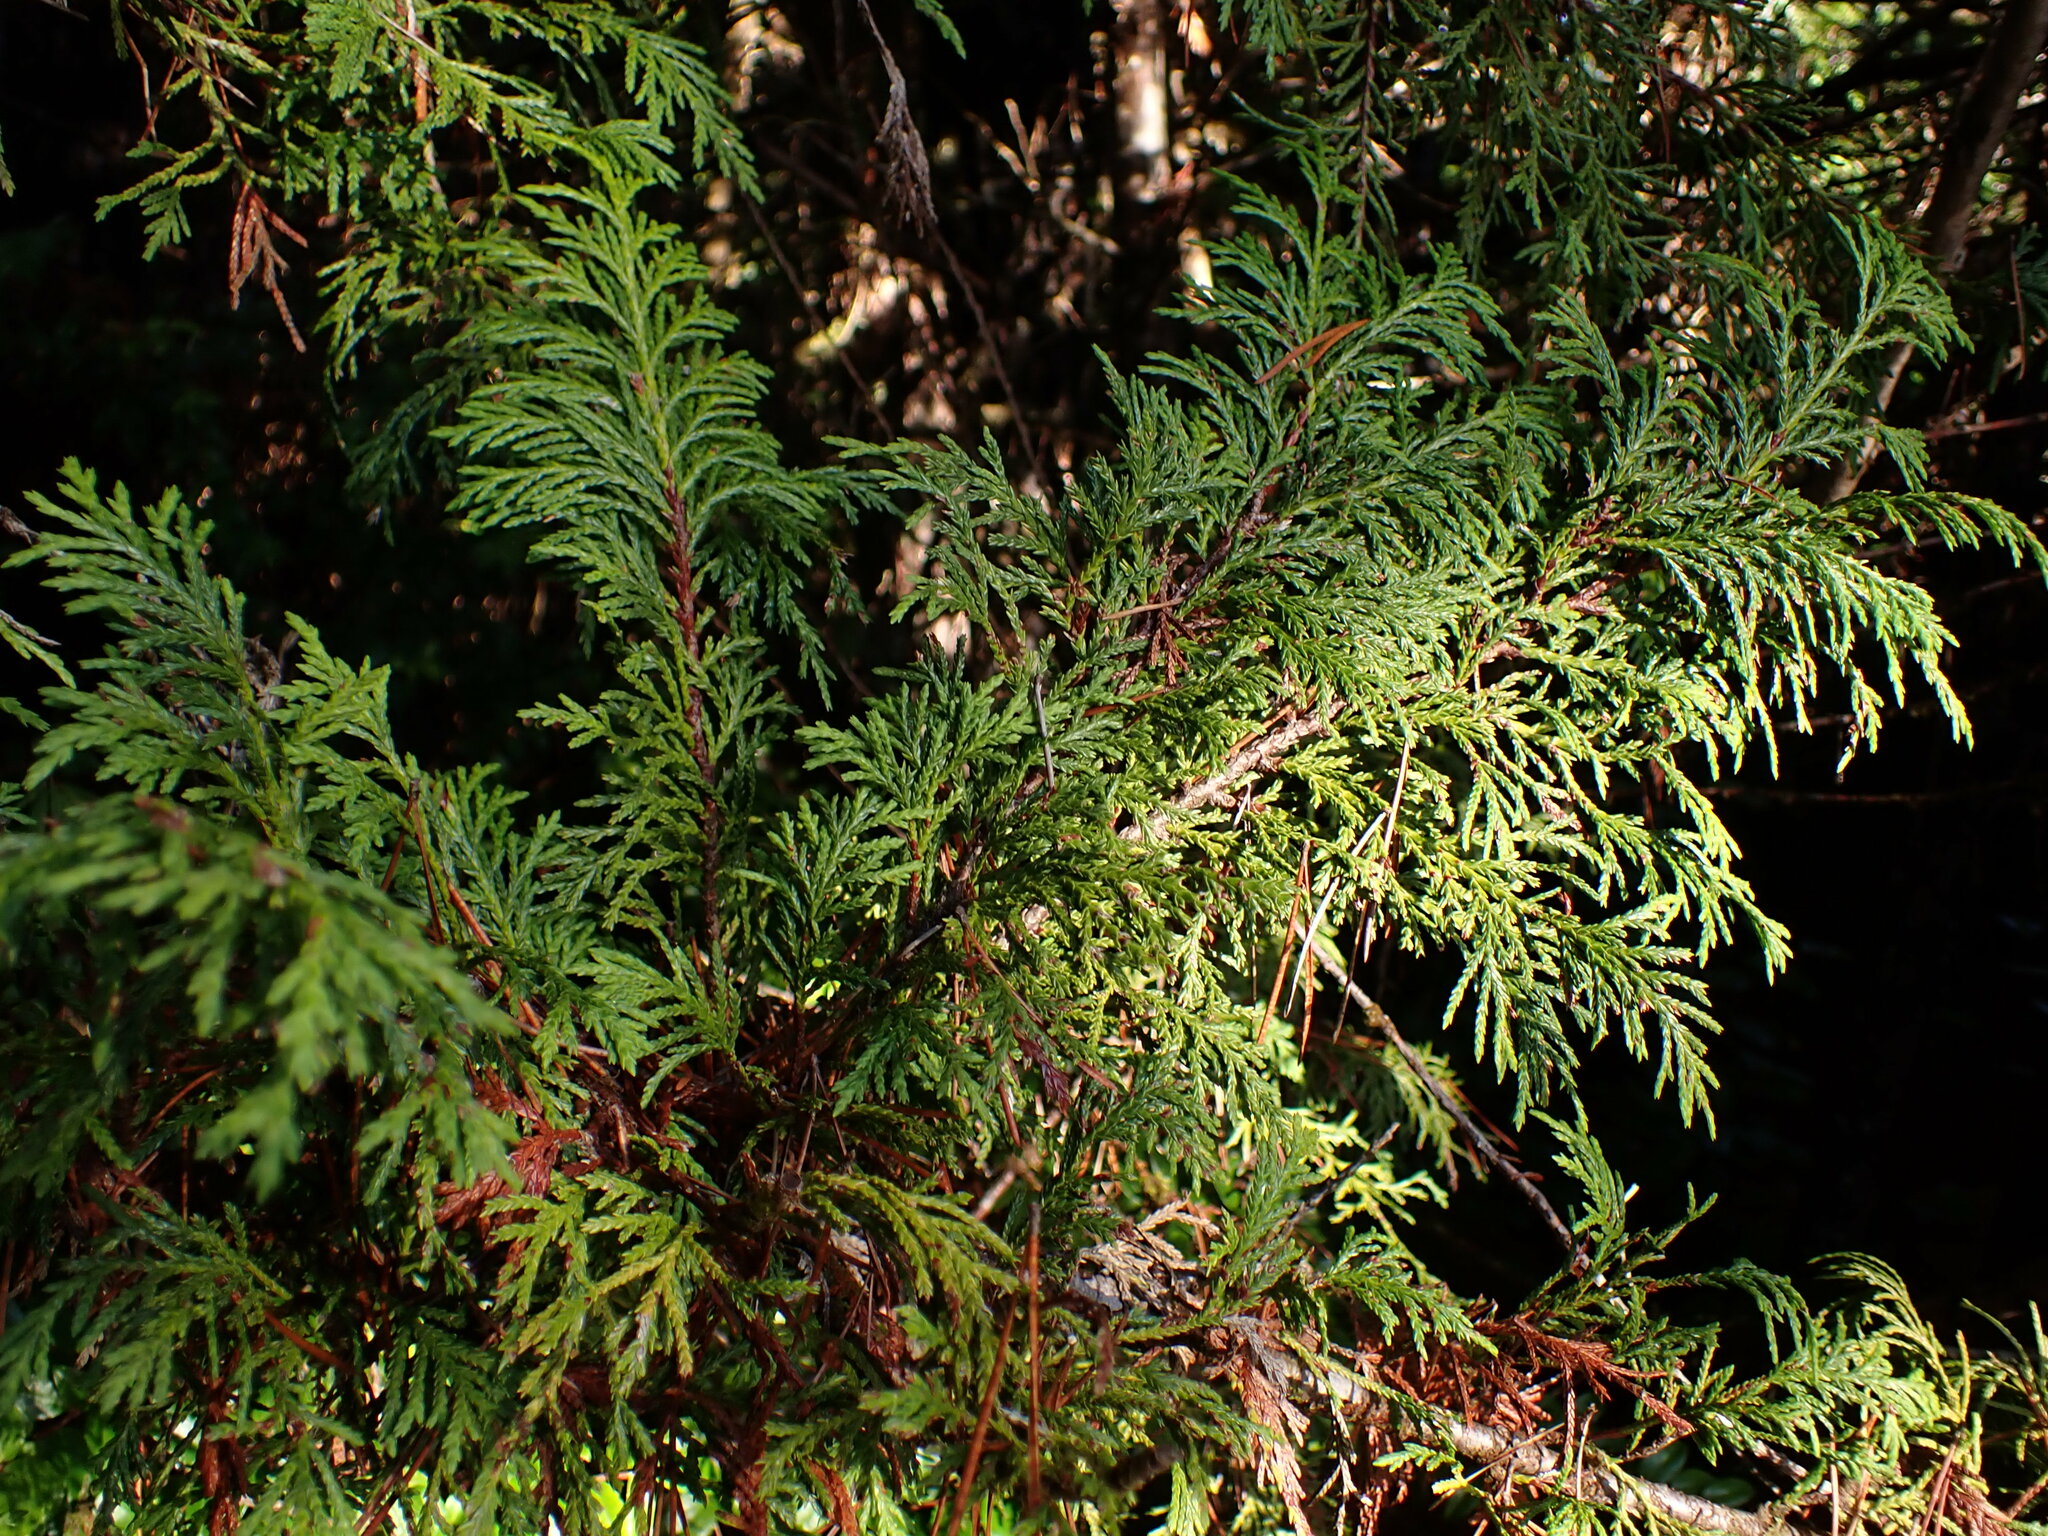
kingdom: Plantae
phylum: Tracheophyta
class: Pinopsida
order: Pinales
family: Cupressaceae
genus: Xanthocyparis
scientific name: Xanthocyparis nootkatensis
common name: Nootka cypress
